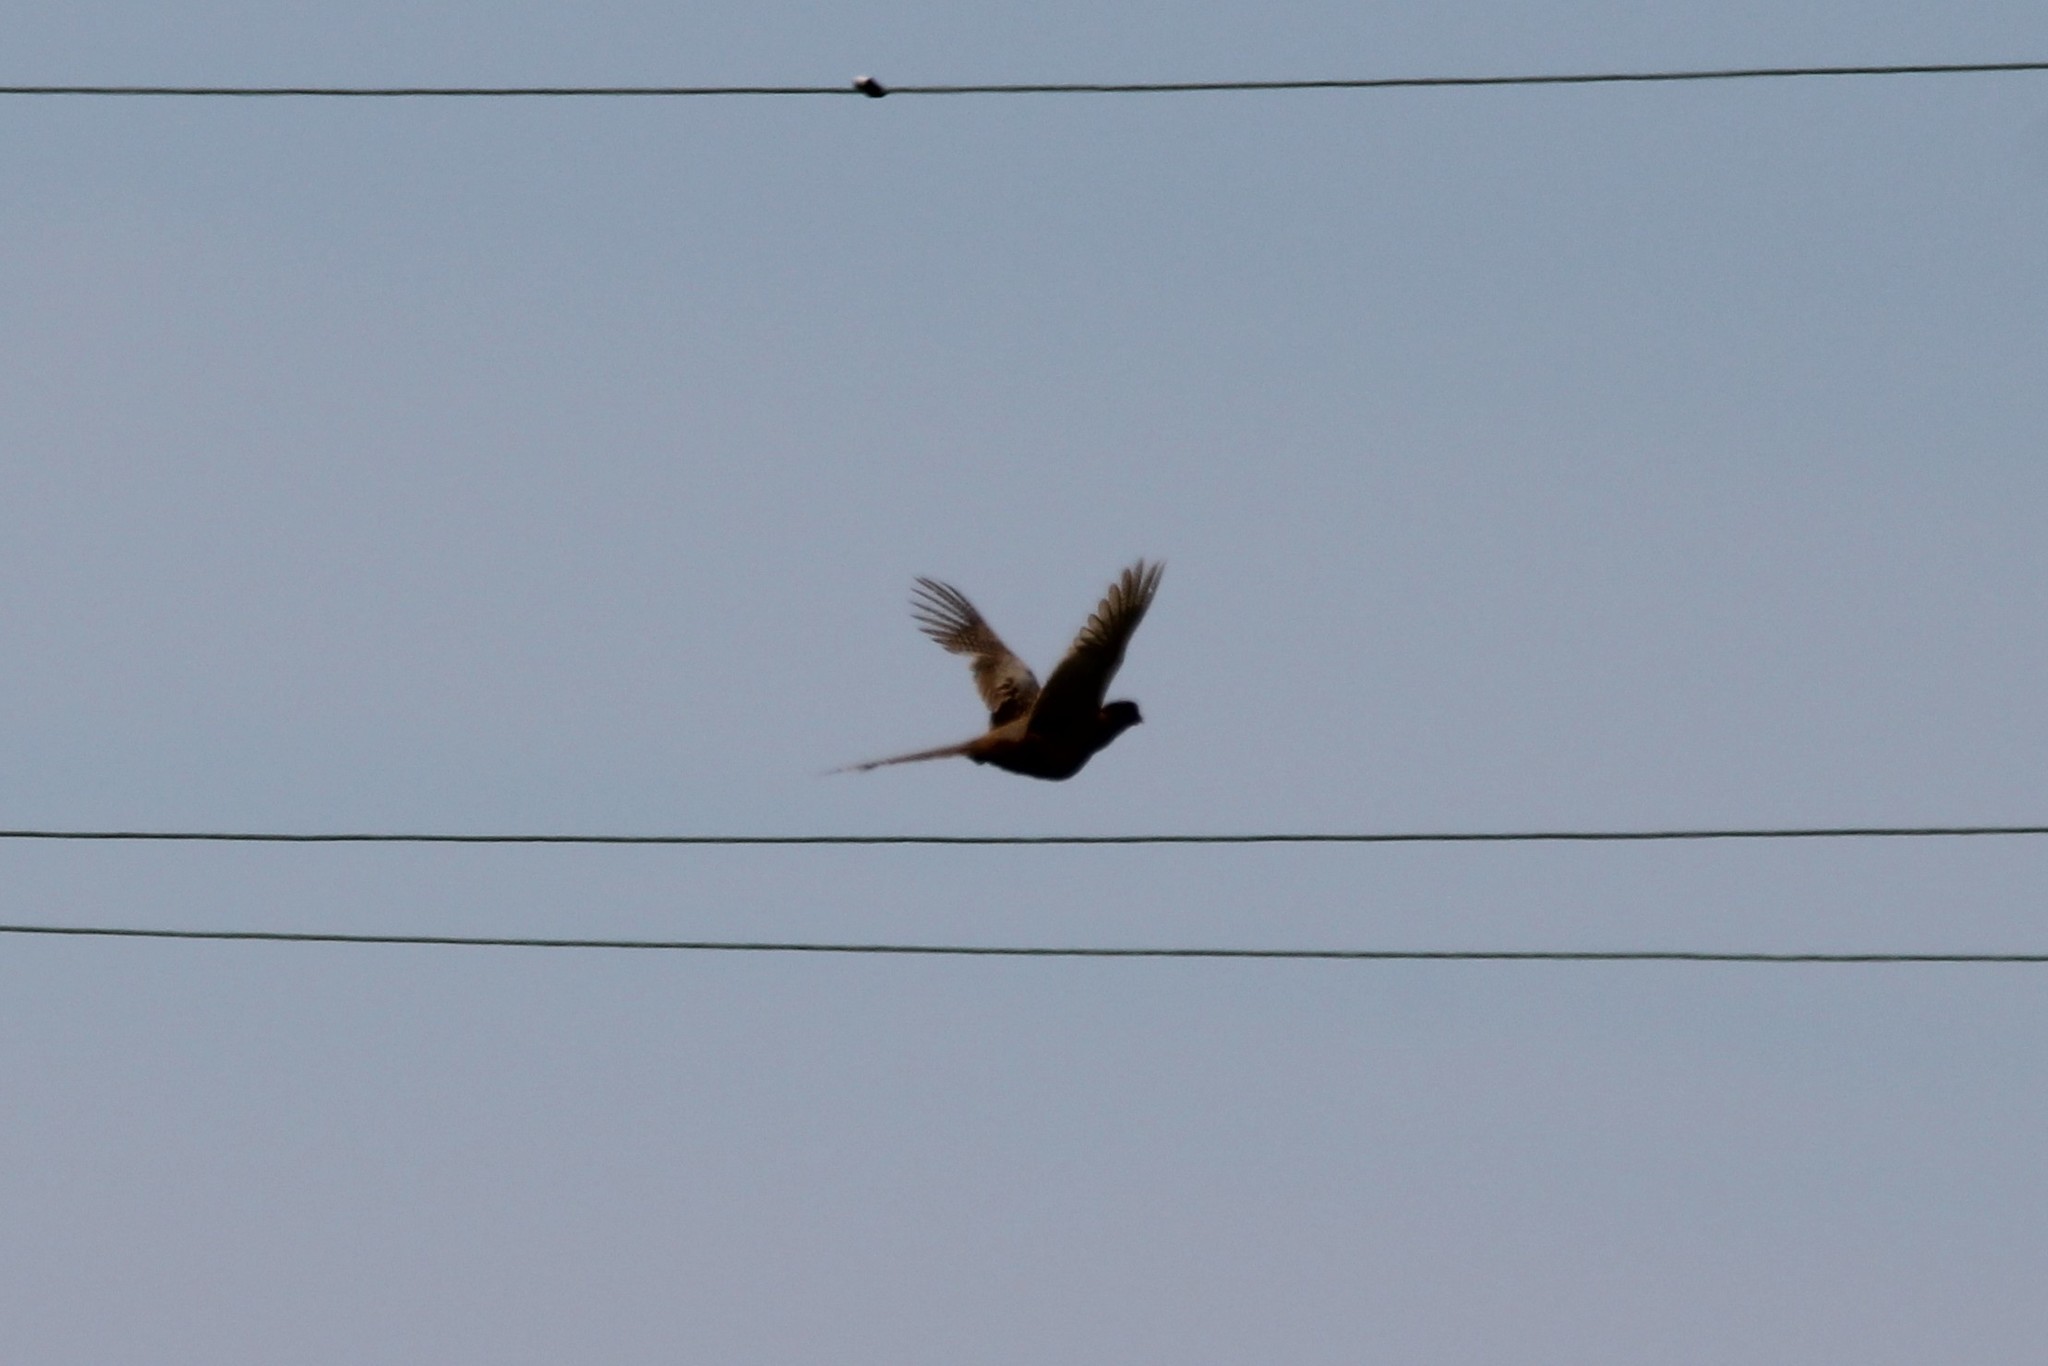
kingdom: Animalia
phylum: Chordata
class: Aves
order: Galliformes
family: Phasianidae
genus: Phasianus
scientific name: Phasianus colchicus
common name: Common pheasant
